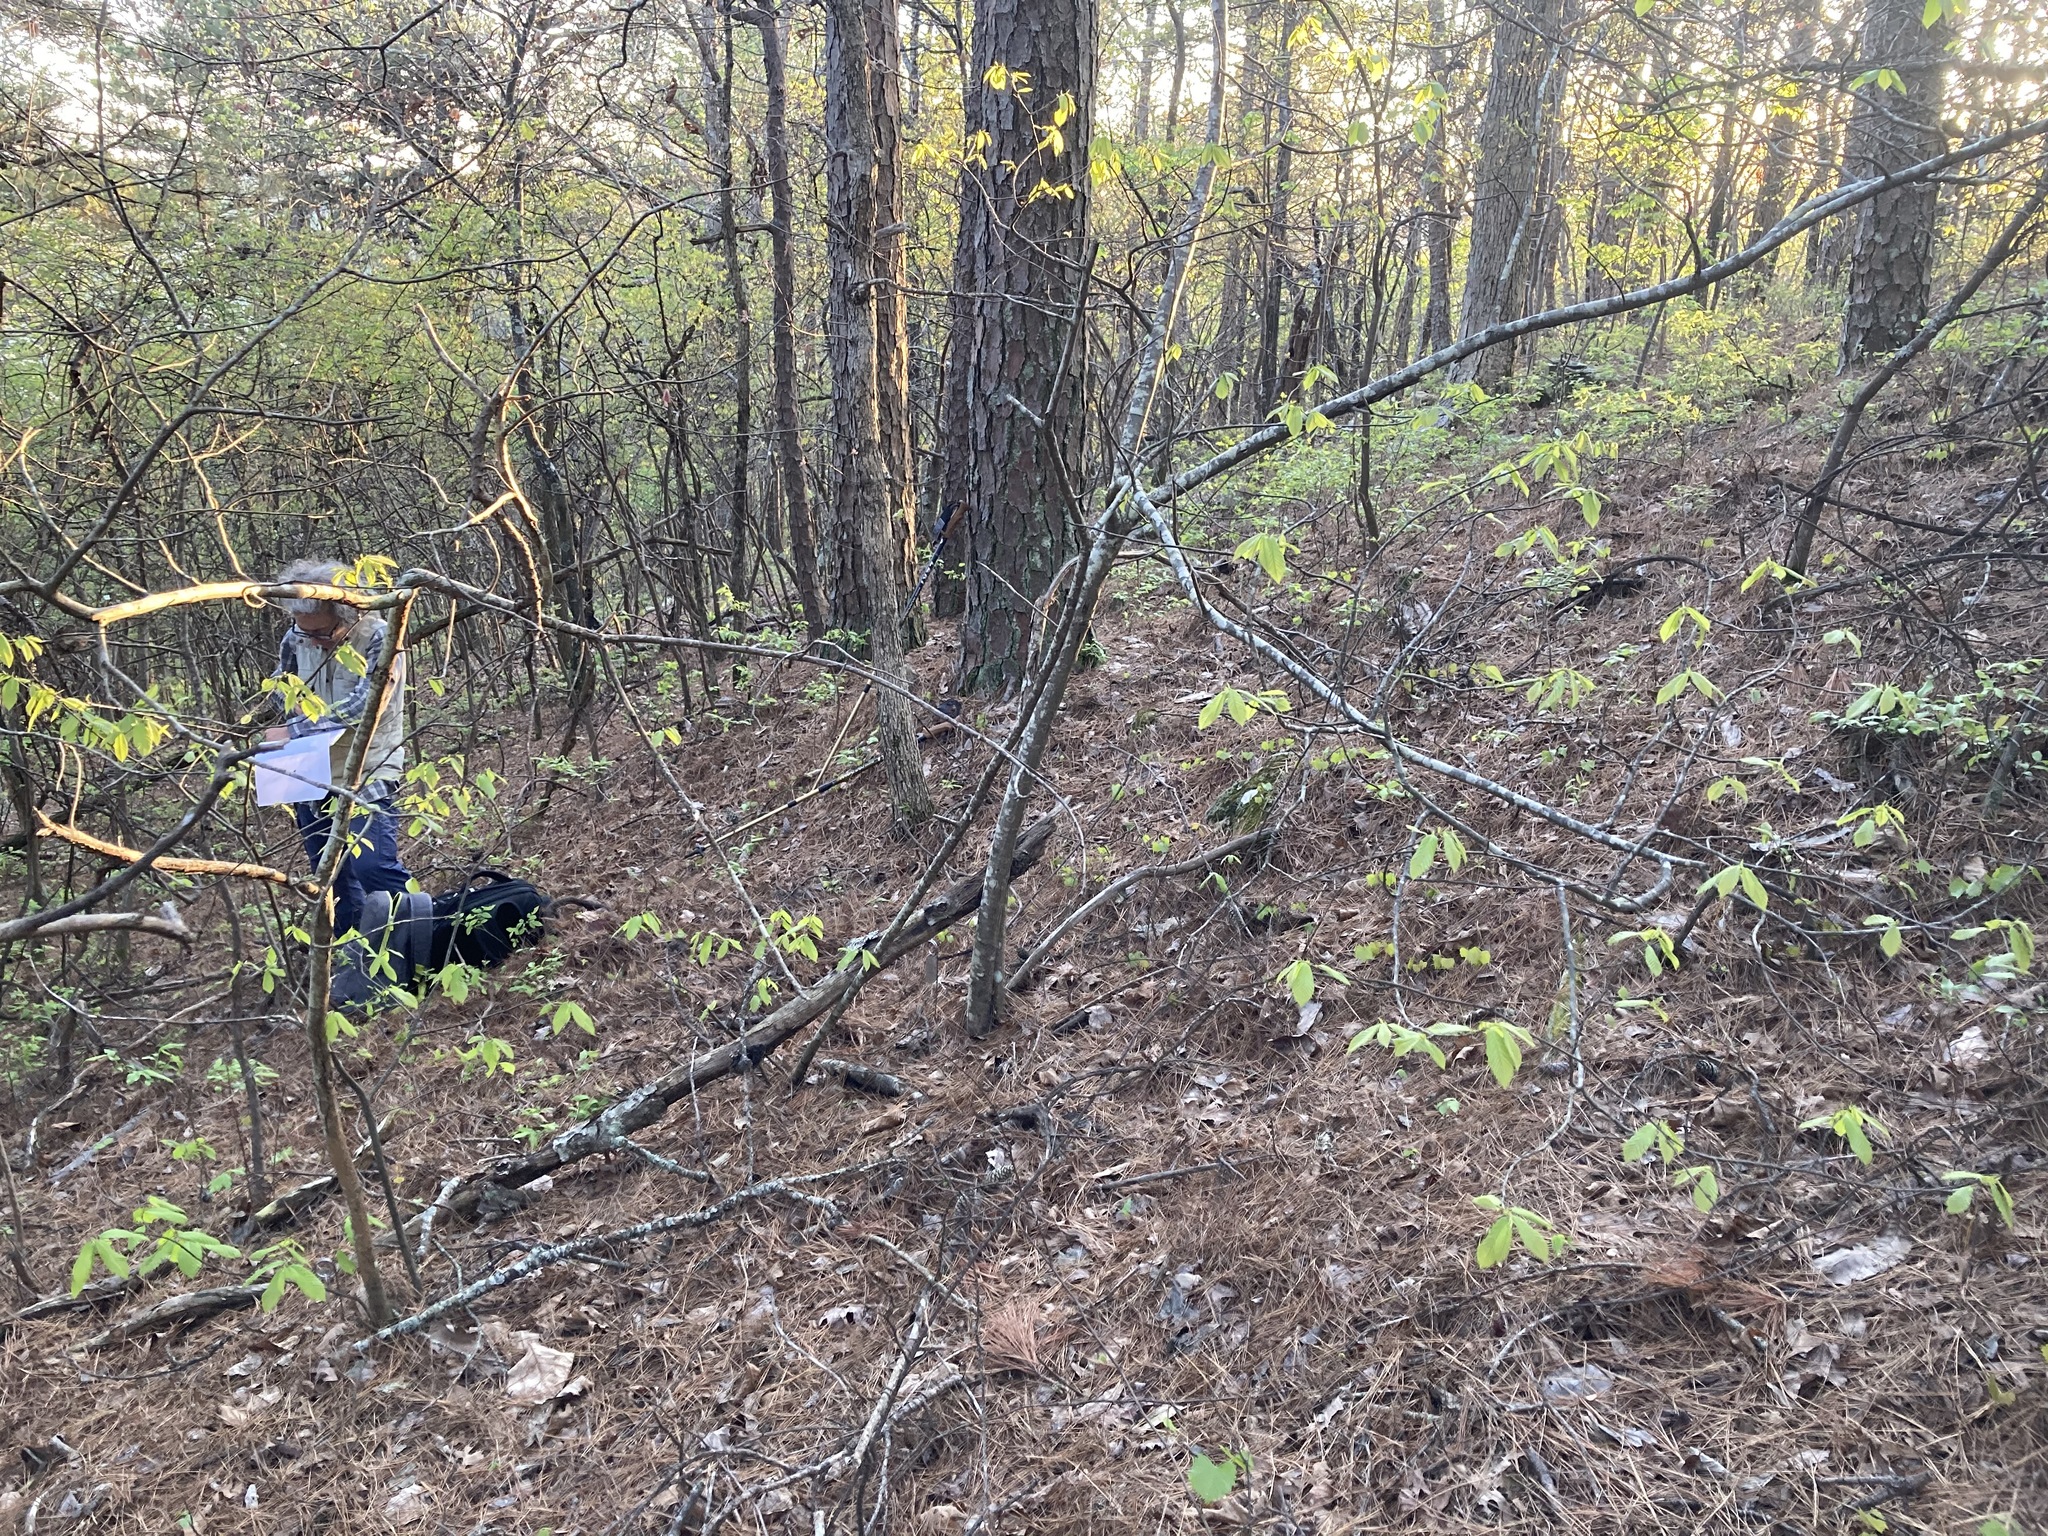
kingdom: Plantae
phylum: Tracheophyta
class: Magnoliopsida
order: Fagales
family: Fagaceae
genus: Castanea
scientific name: Castanea ozarkensis
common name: Ozark chinkapin
